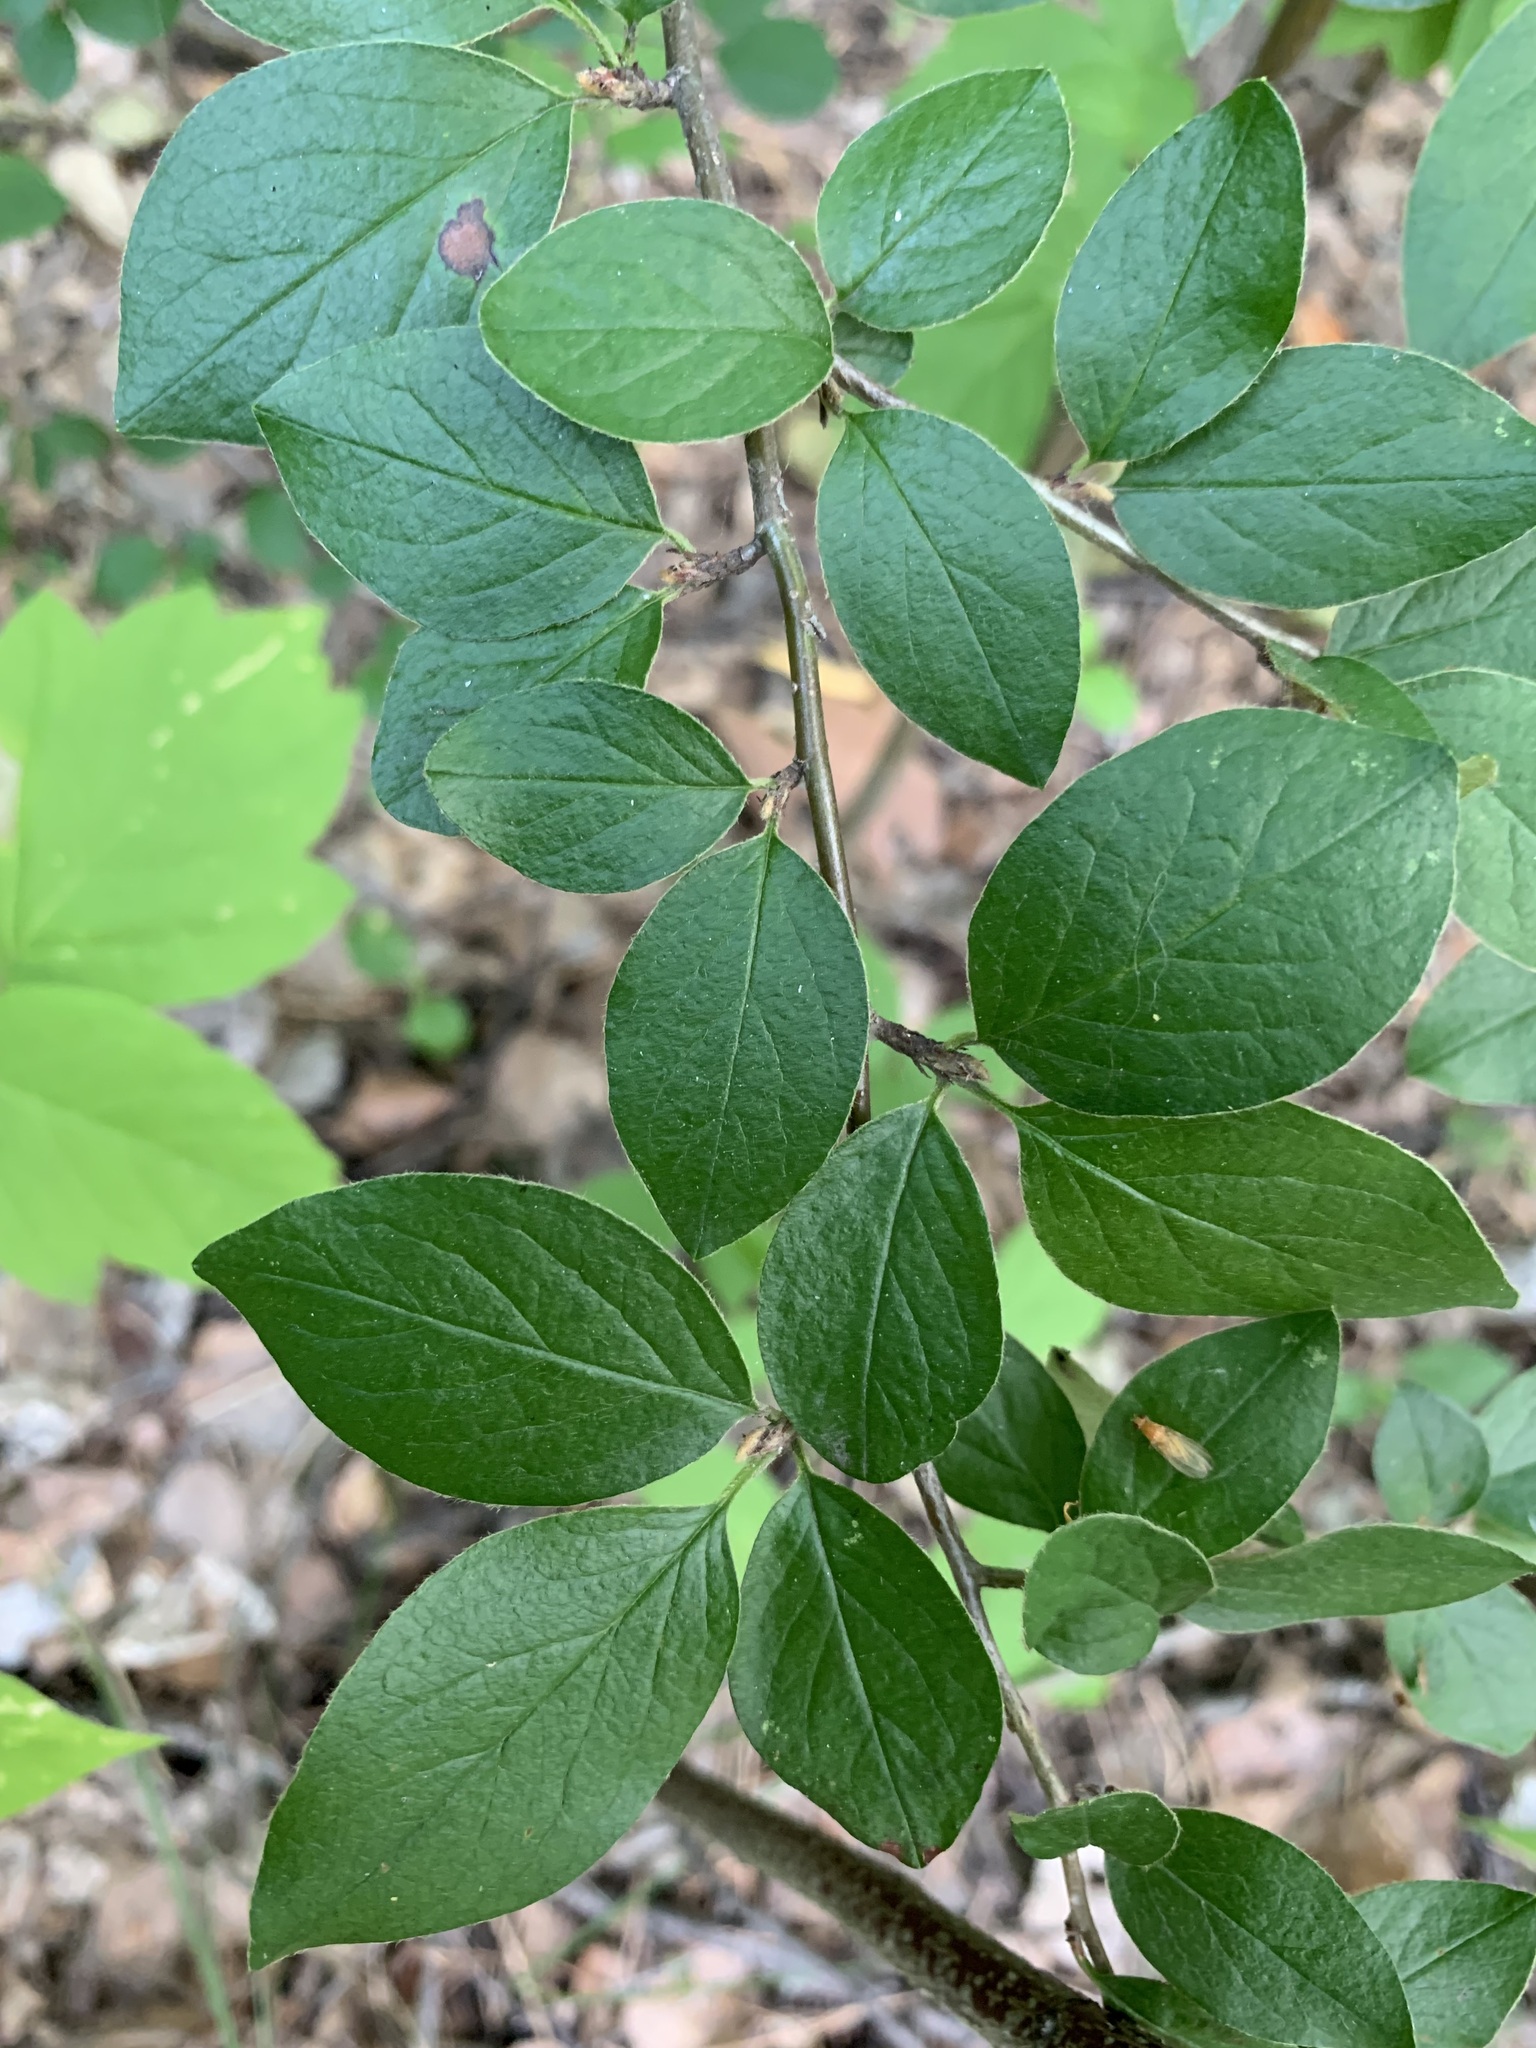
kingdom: Plantae
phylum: Tracheophyta
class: Magnoliopsida
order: Rosales
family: Rosaceae
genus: Cotoneaster
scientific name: Cotoneaster acutifolius
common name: Peking cotoneaster
